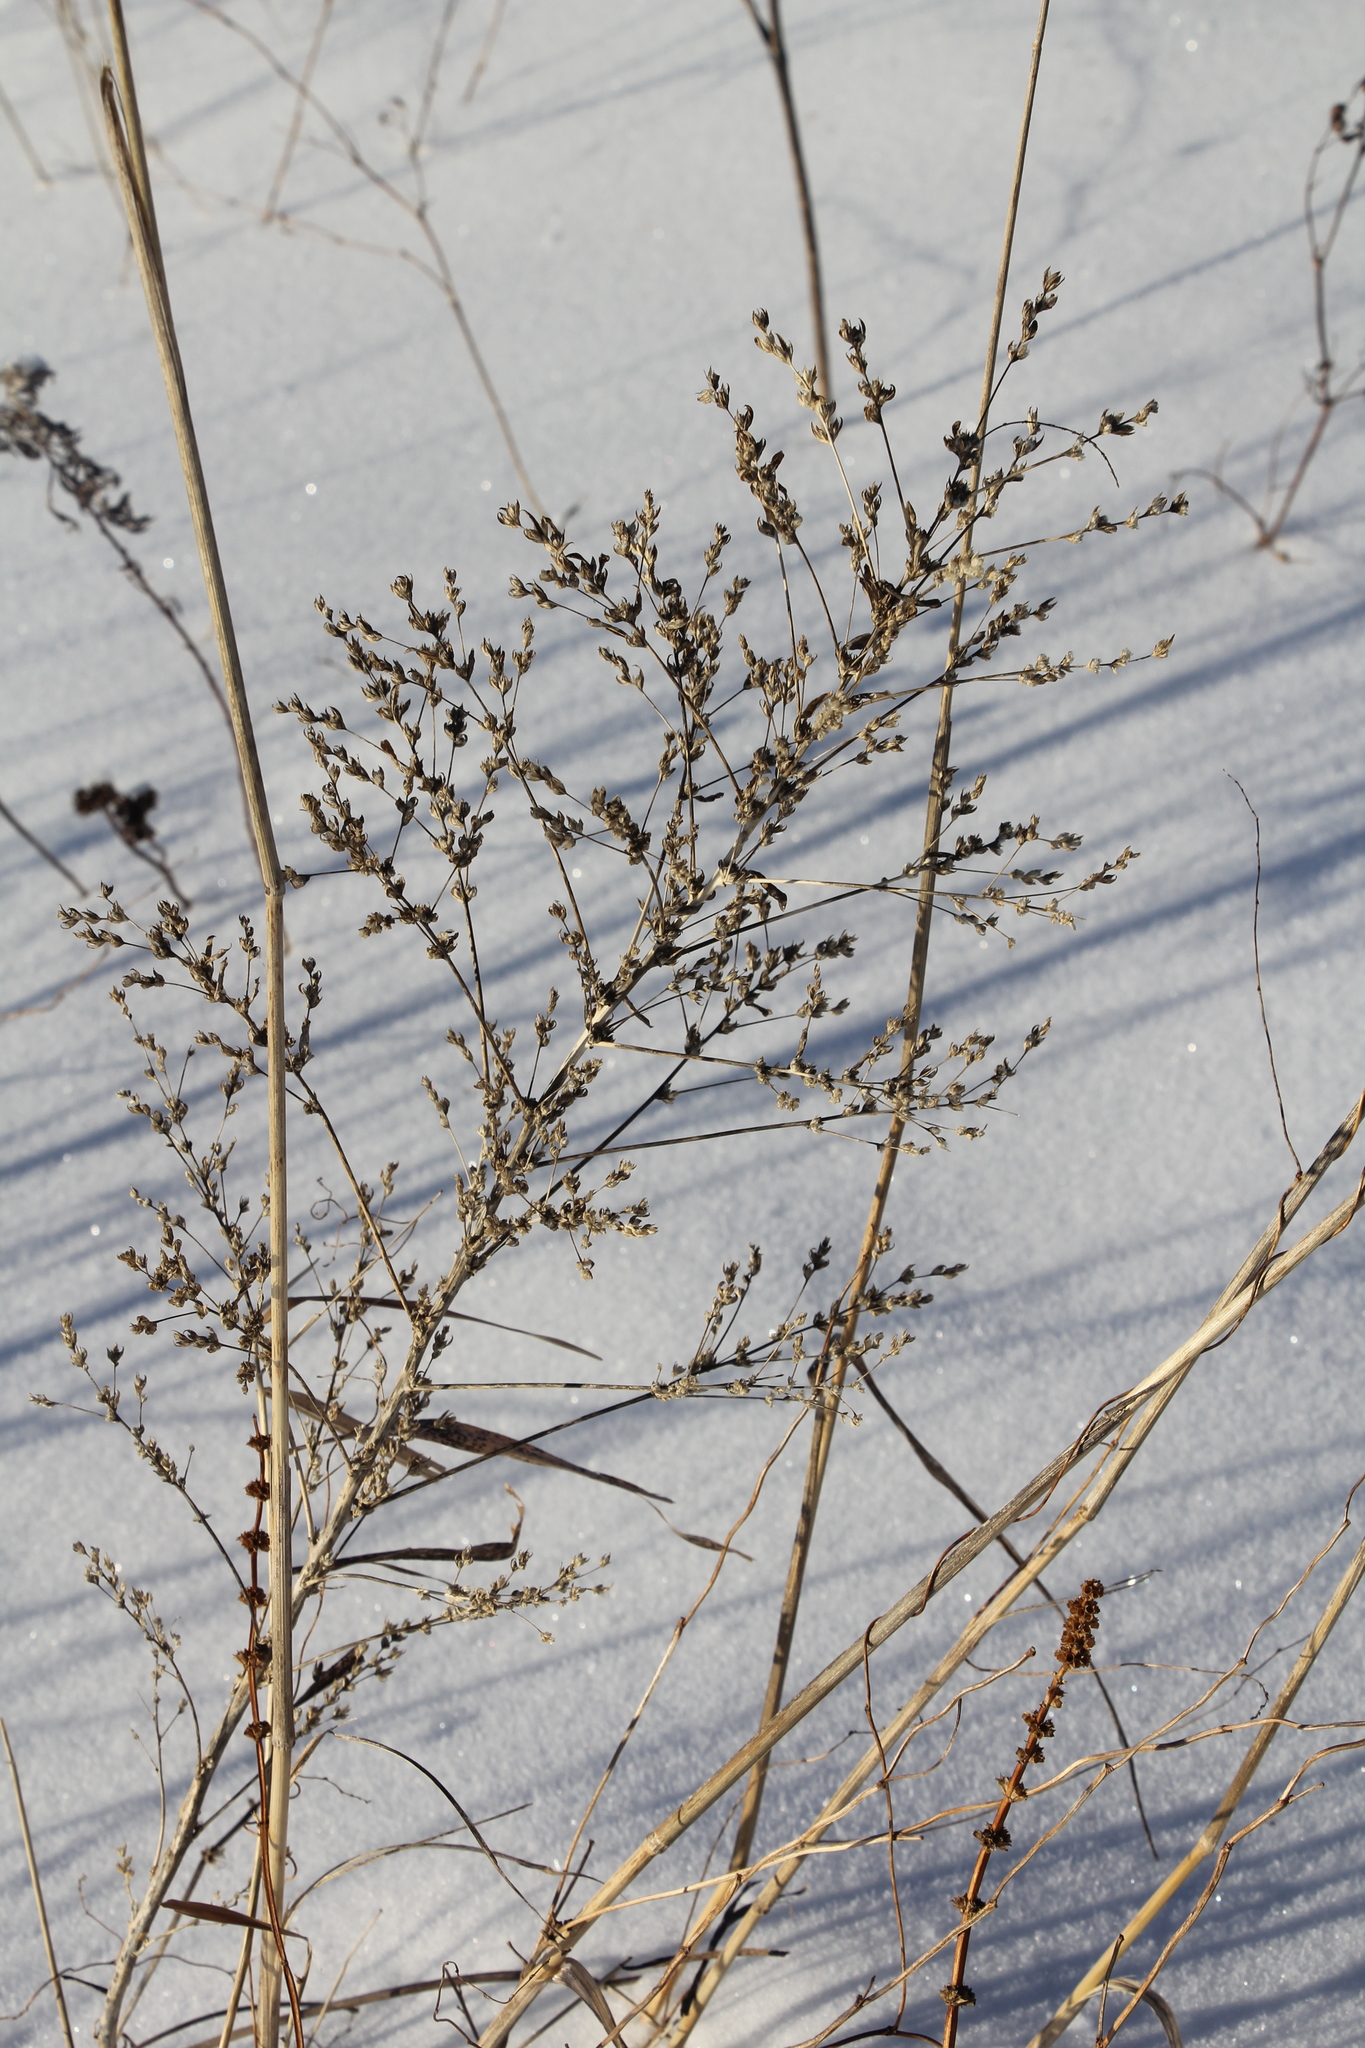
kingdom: Plantae
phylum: Tracheophyta
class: Magnoliopsida
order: Caryophyllales
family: Amaranthaceae
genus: Axyris
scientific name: Axyris amaranthoides
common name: Russian pigweed
